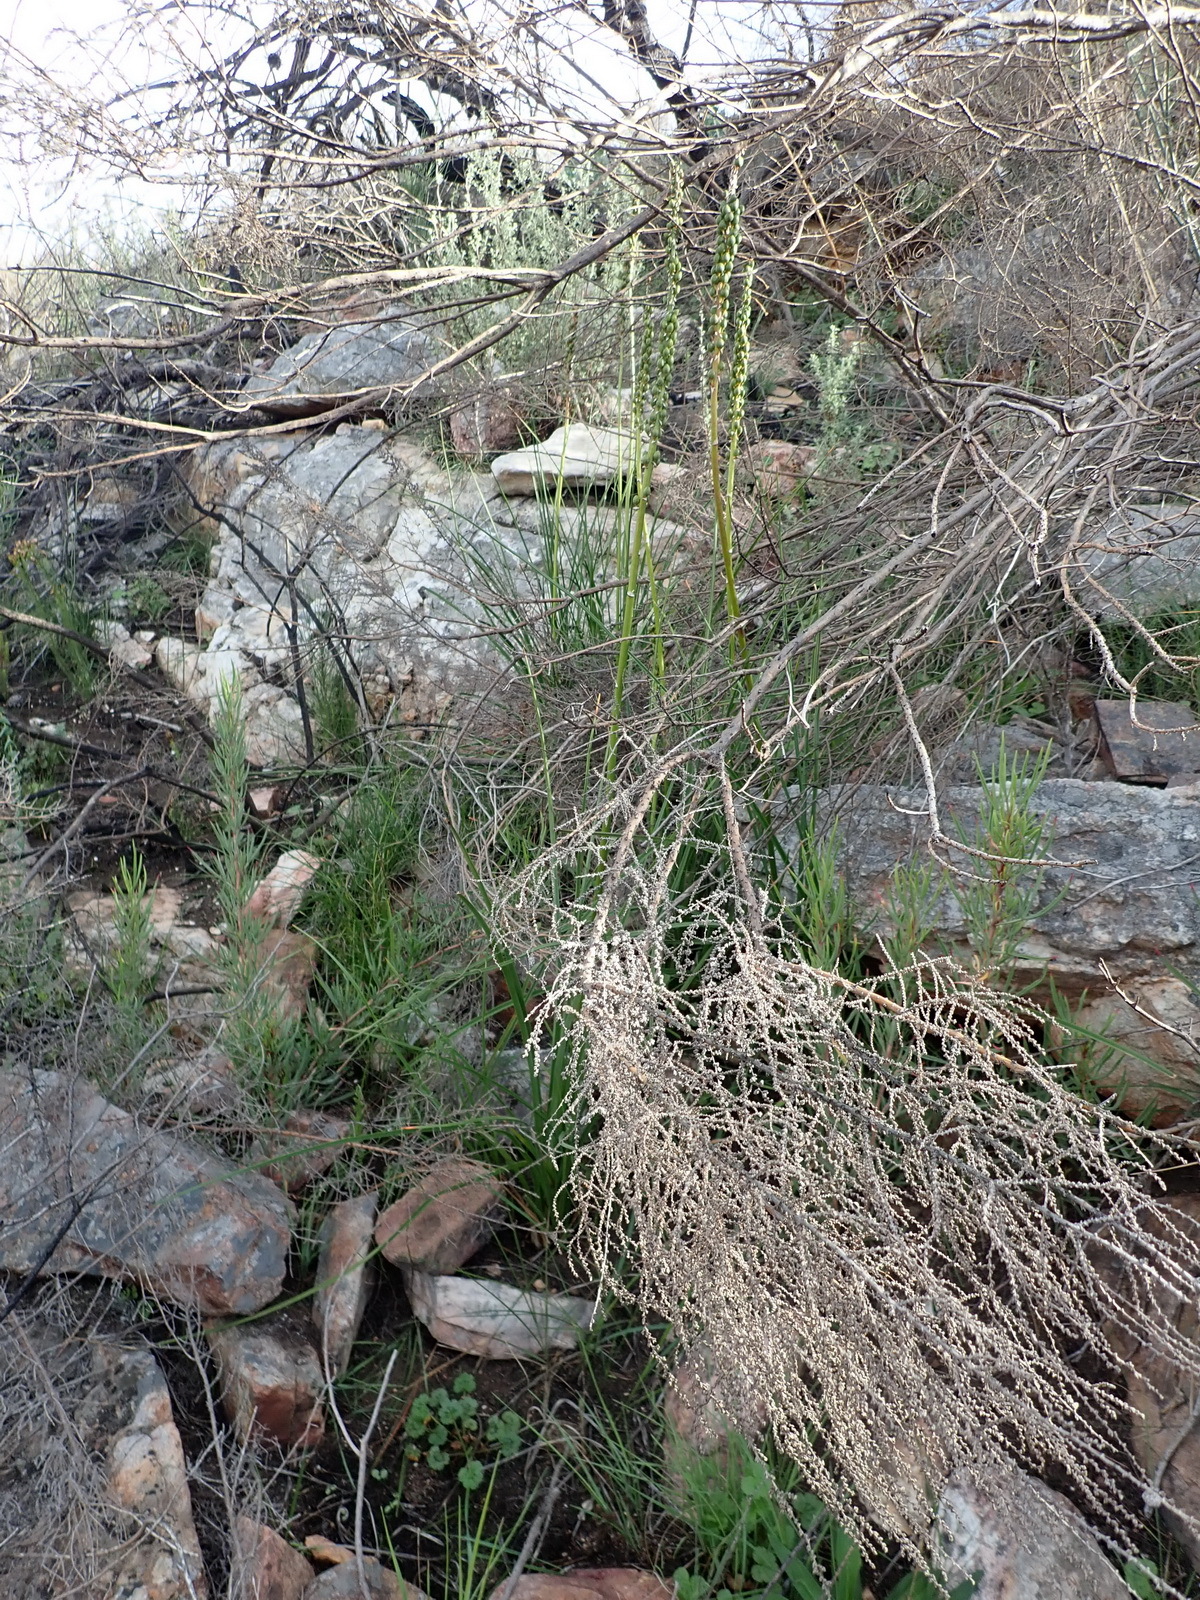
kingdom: Plantae
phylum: Tracheophyta
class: Liliopsida
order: Asparagales
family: Asphodelaceae
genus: Kniphofia
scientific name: Kniphofia uvaria
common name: Red-hot-poker
